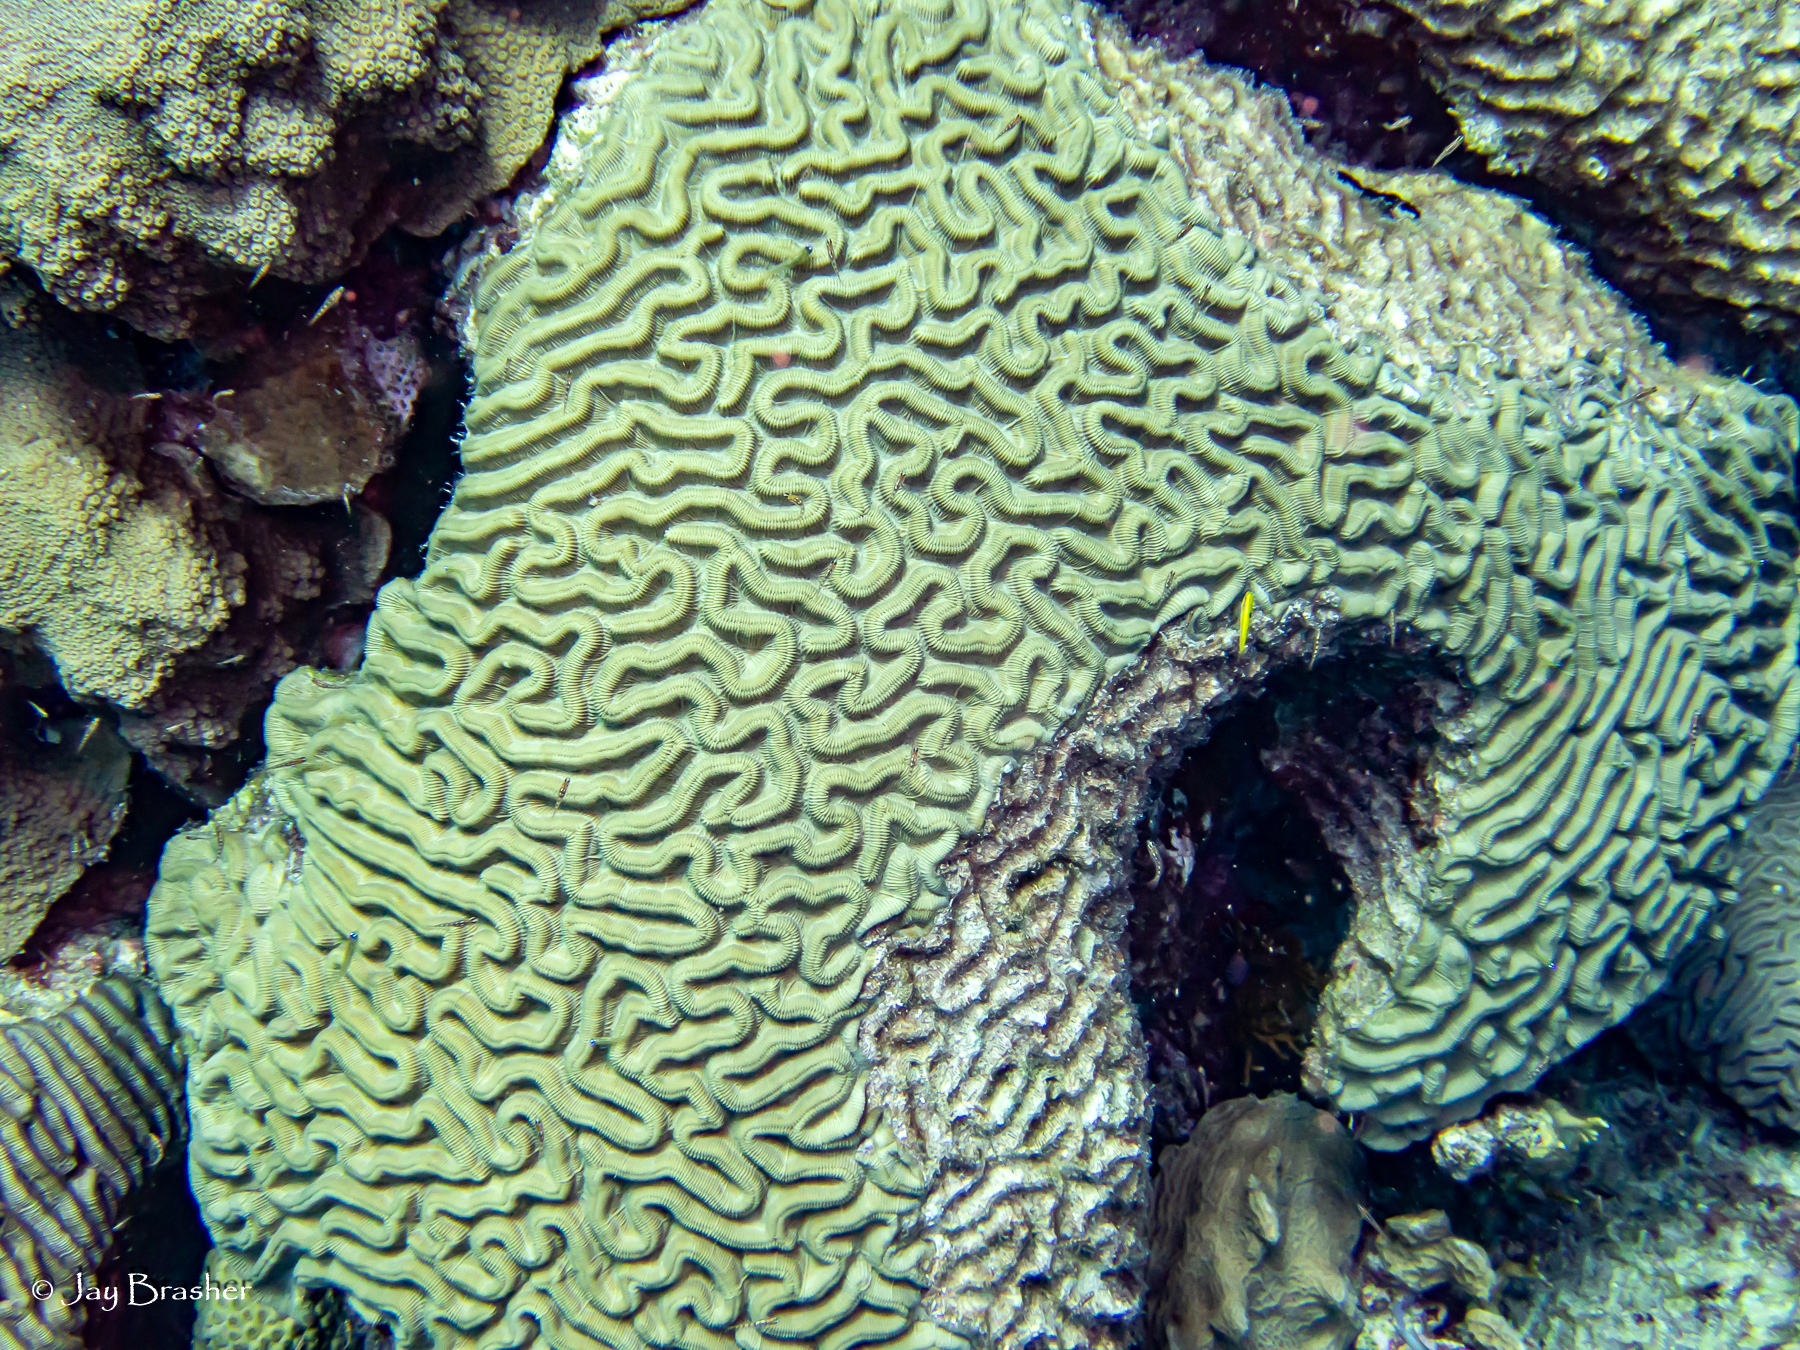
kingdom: Animalia
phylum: Cnidaria
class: Anthozoa
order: Scleractinia
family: Faviidae
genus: Colpophyllia
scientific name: Colpophyllia natans
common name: Boulder brain coral
